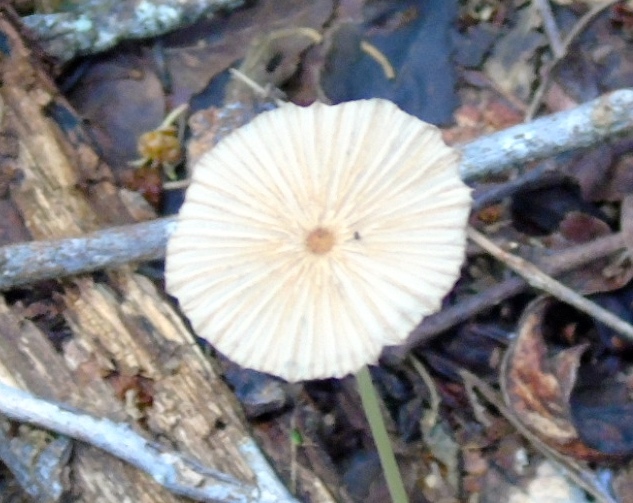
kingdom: Fungi
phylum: Basidiomycota
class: Agaricomycetes
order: Agaricales
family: Psathyrellaceae
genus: Parasola
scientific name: Parasola
